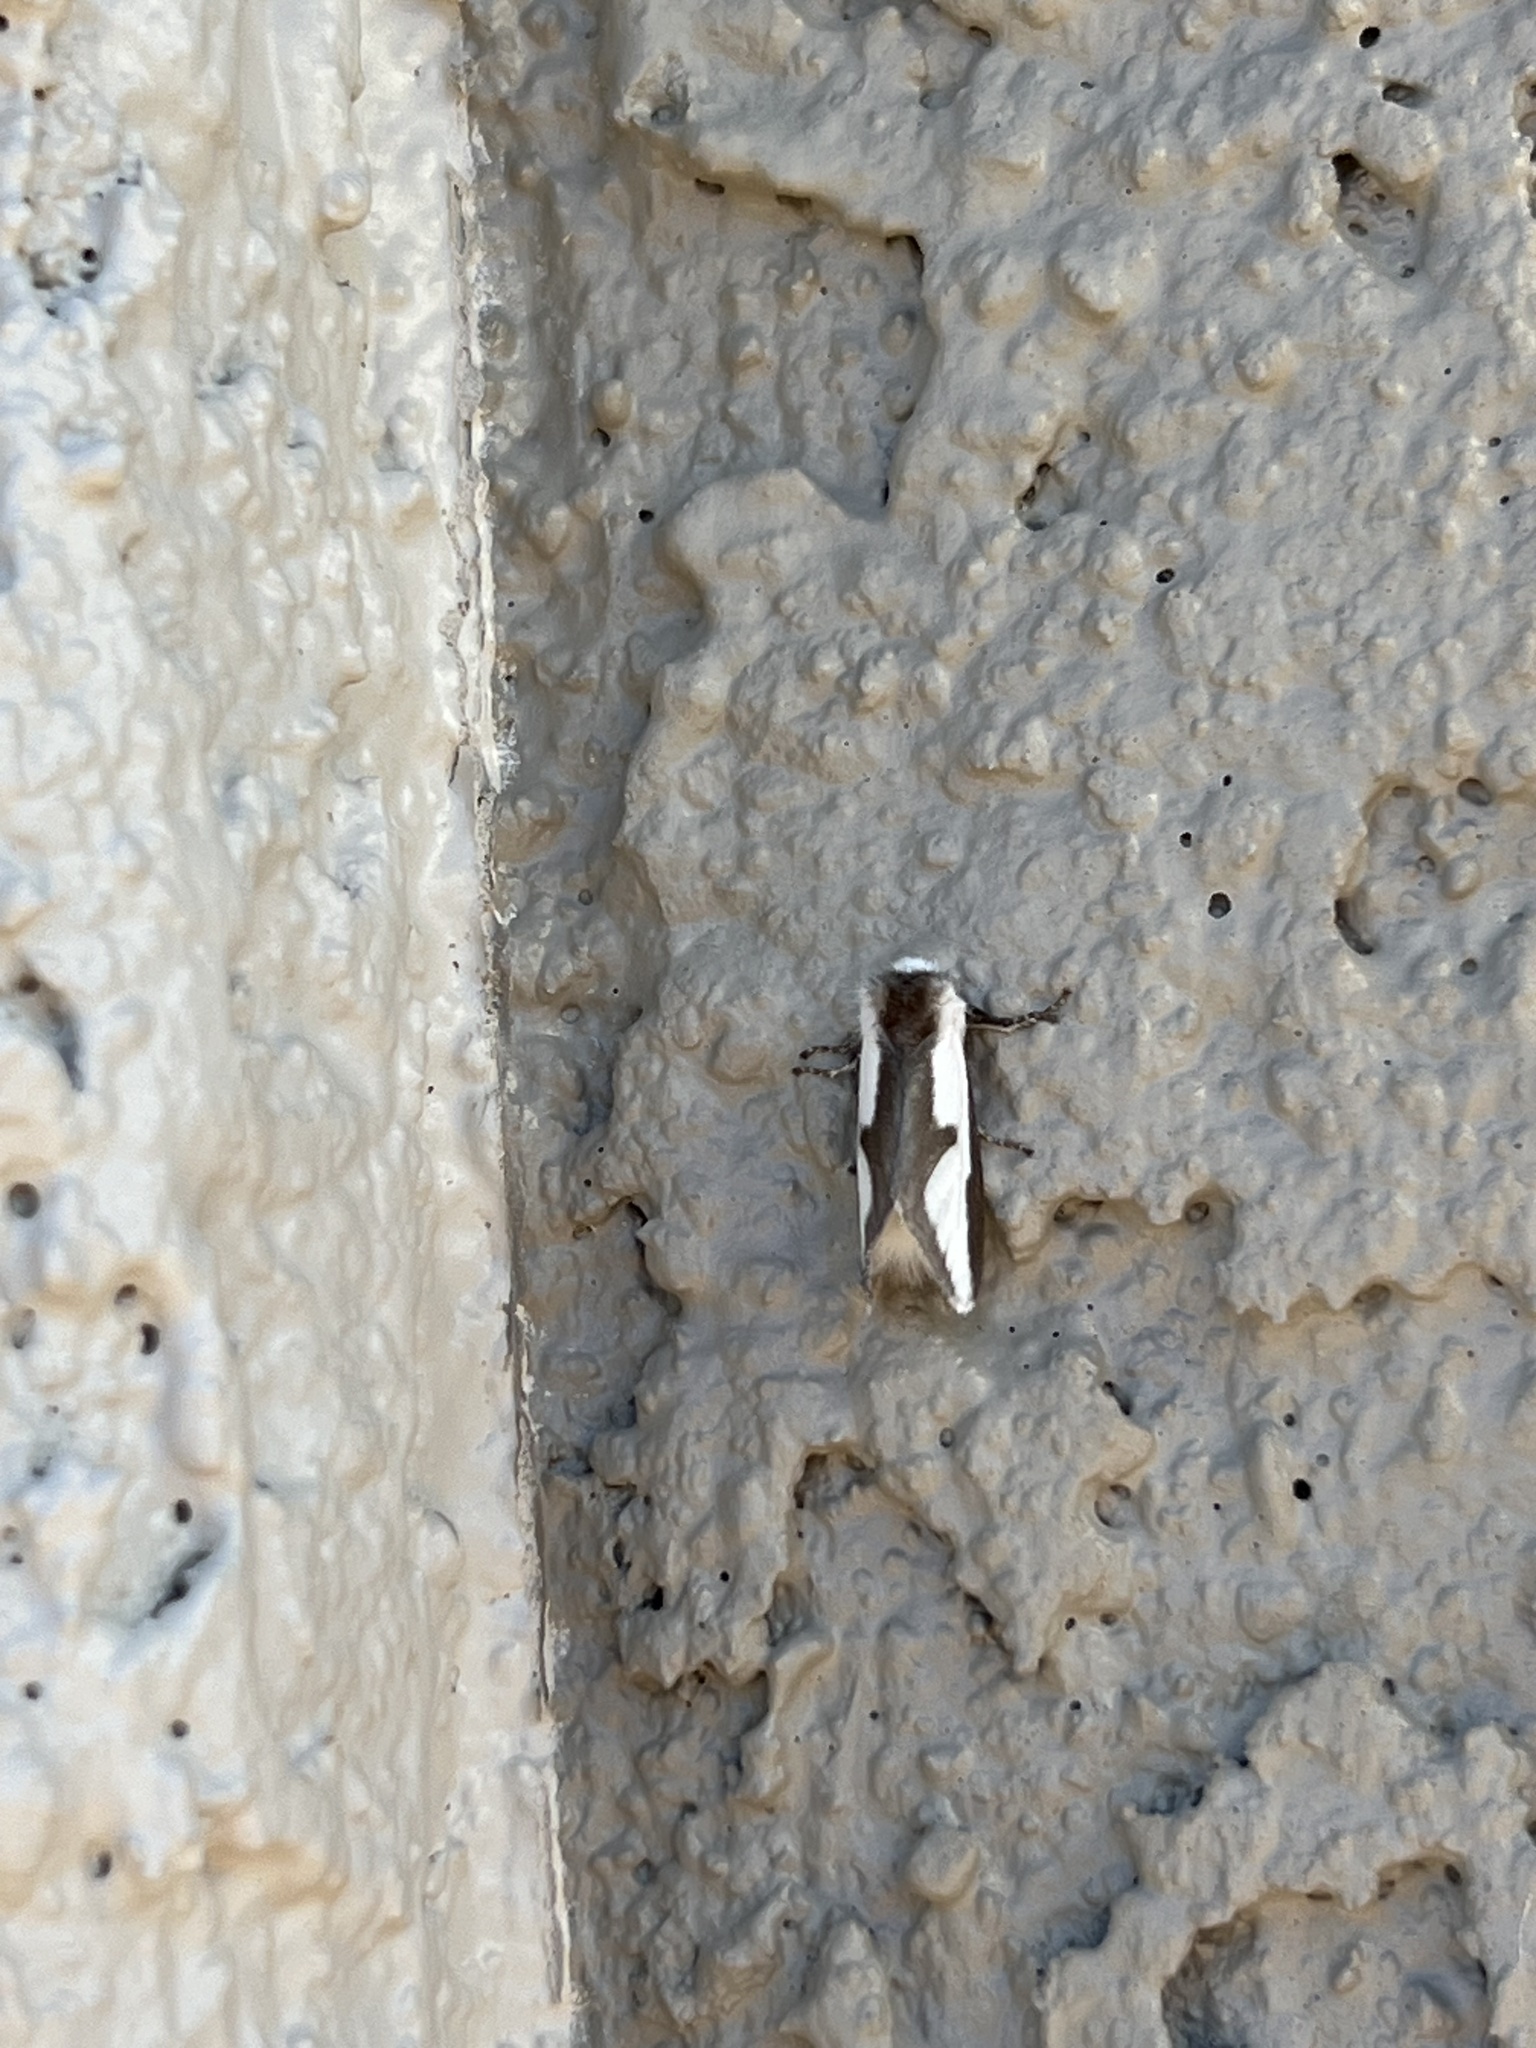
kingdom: Animalia
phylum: Arthropoda
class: Insecta
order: Lepidoptera
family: Megalopygidae
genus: Norape
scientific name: Norape tener
